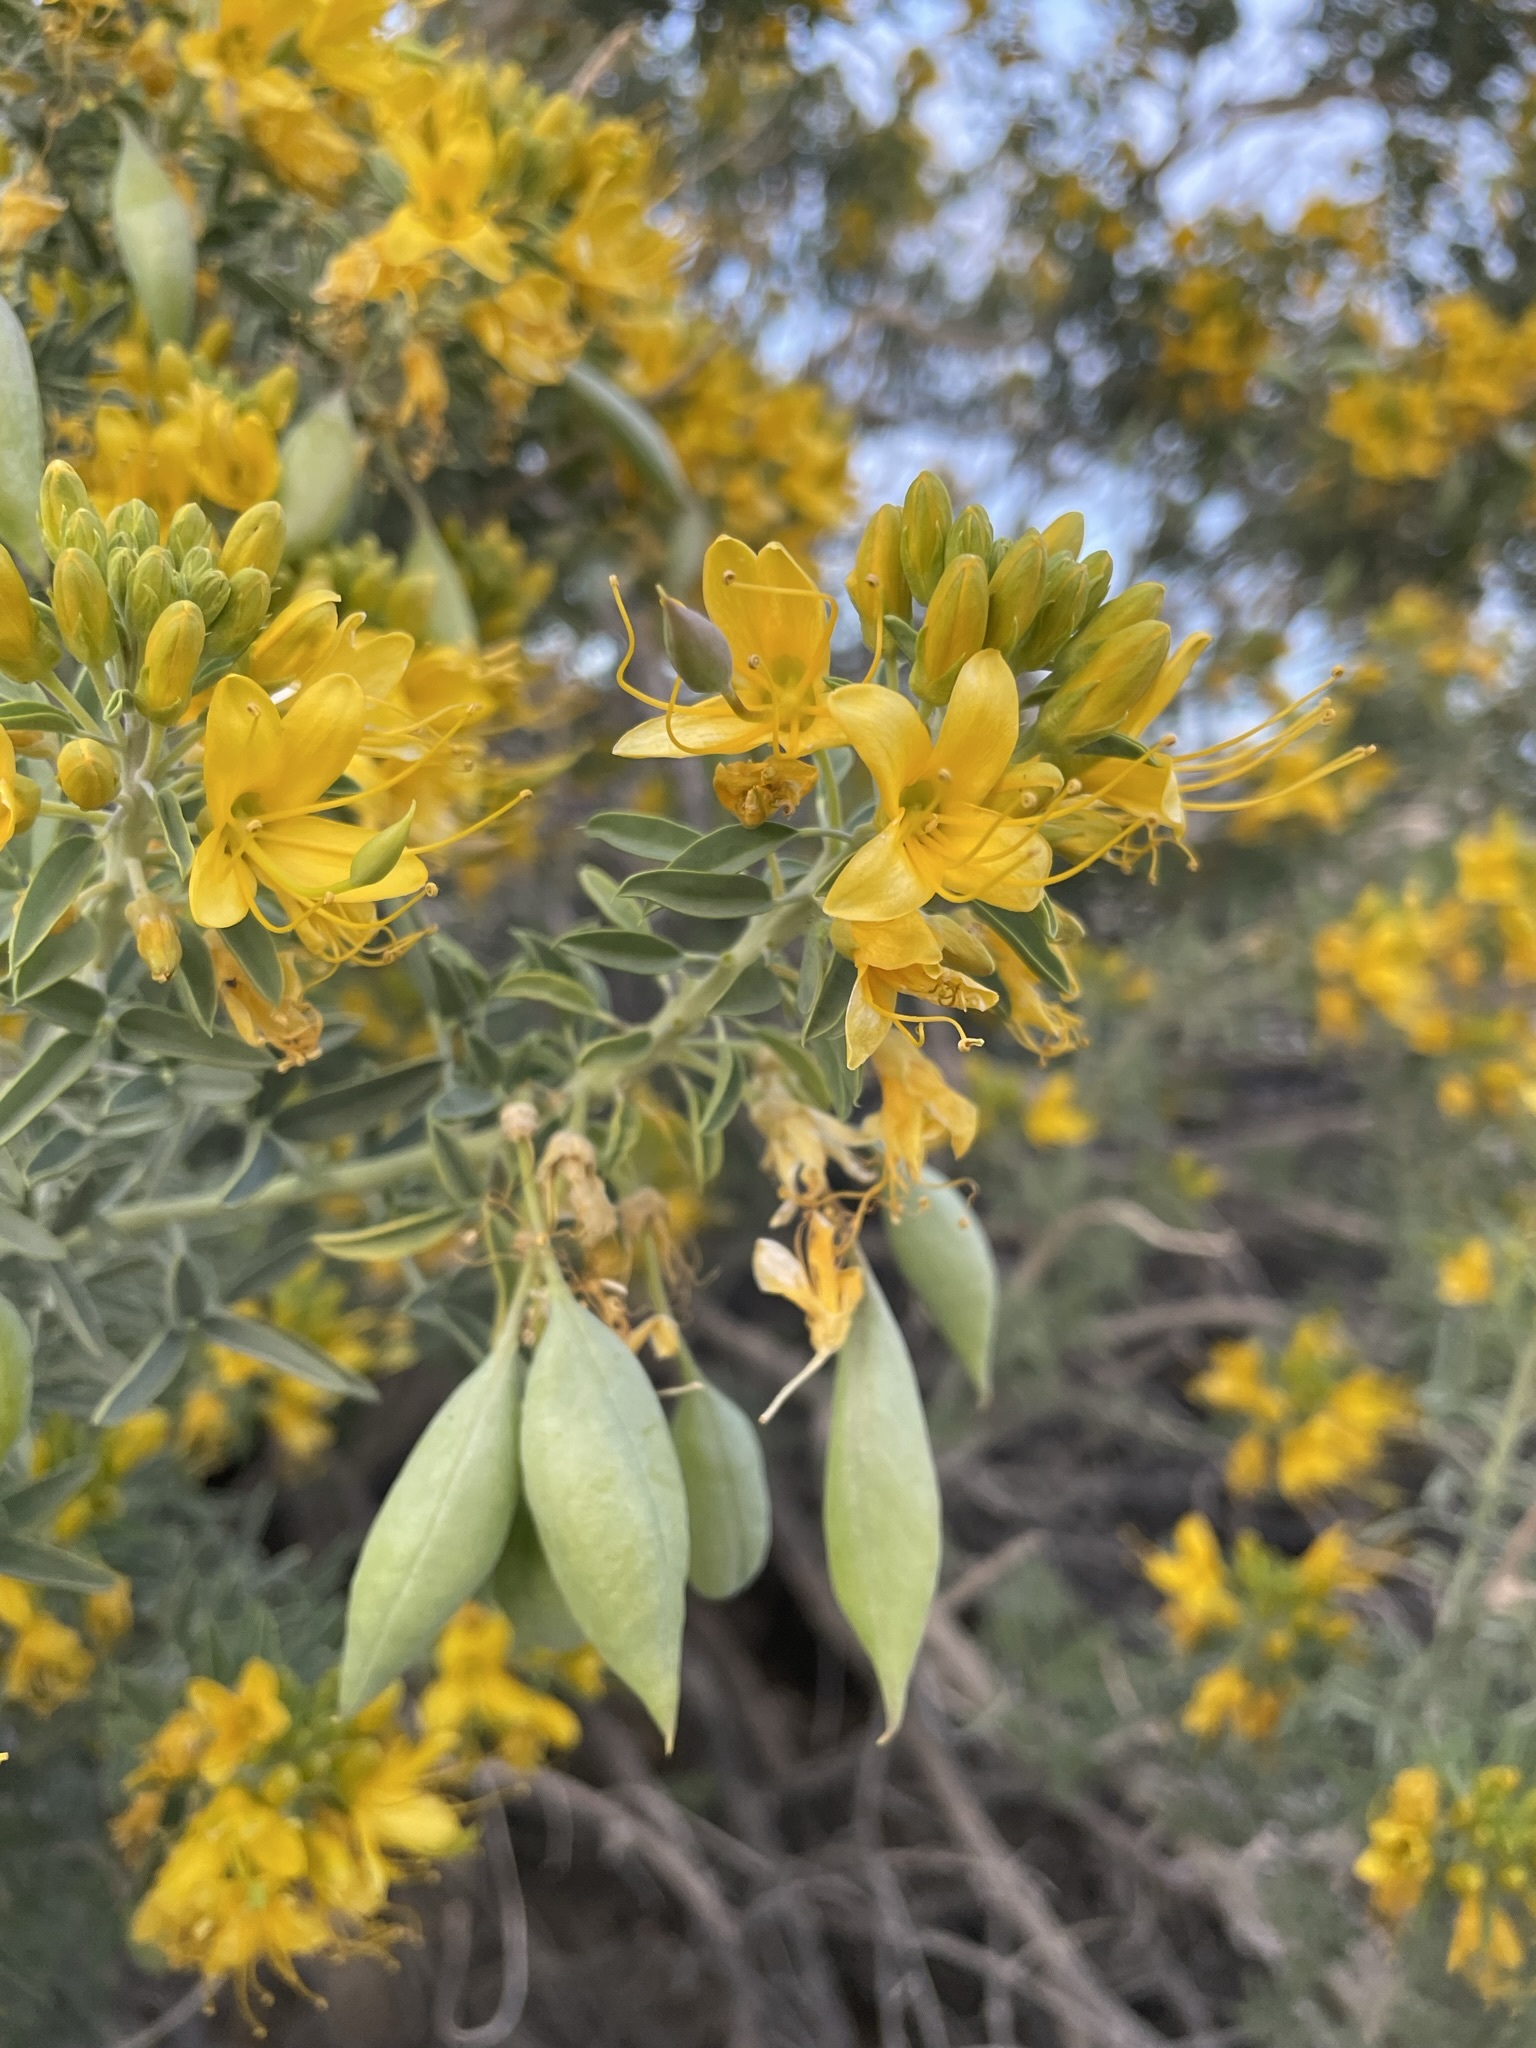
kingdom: Plantae
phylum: Tracheophyta
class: Magnoliopsida
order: Brassicales
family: Cleomaceae
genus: Cleomella
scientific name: Cleomella arborea
